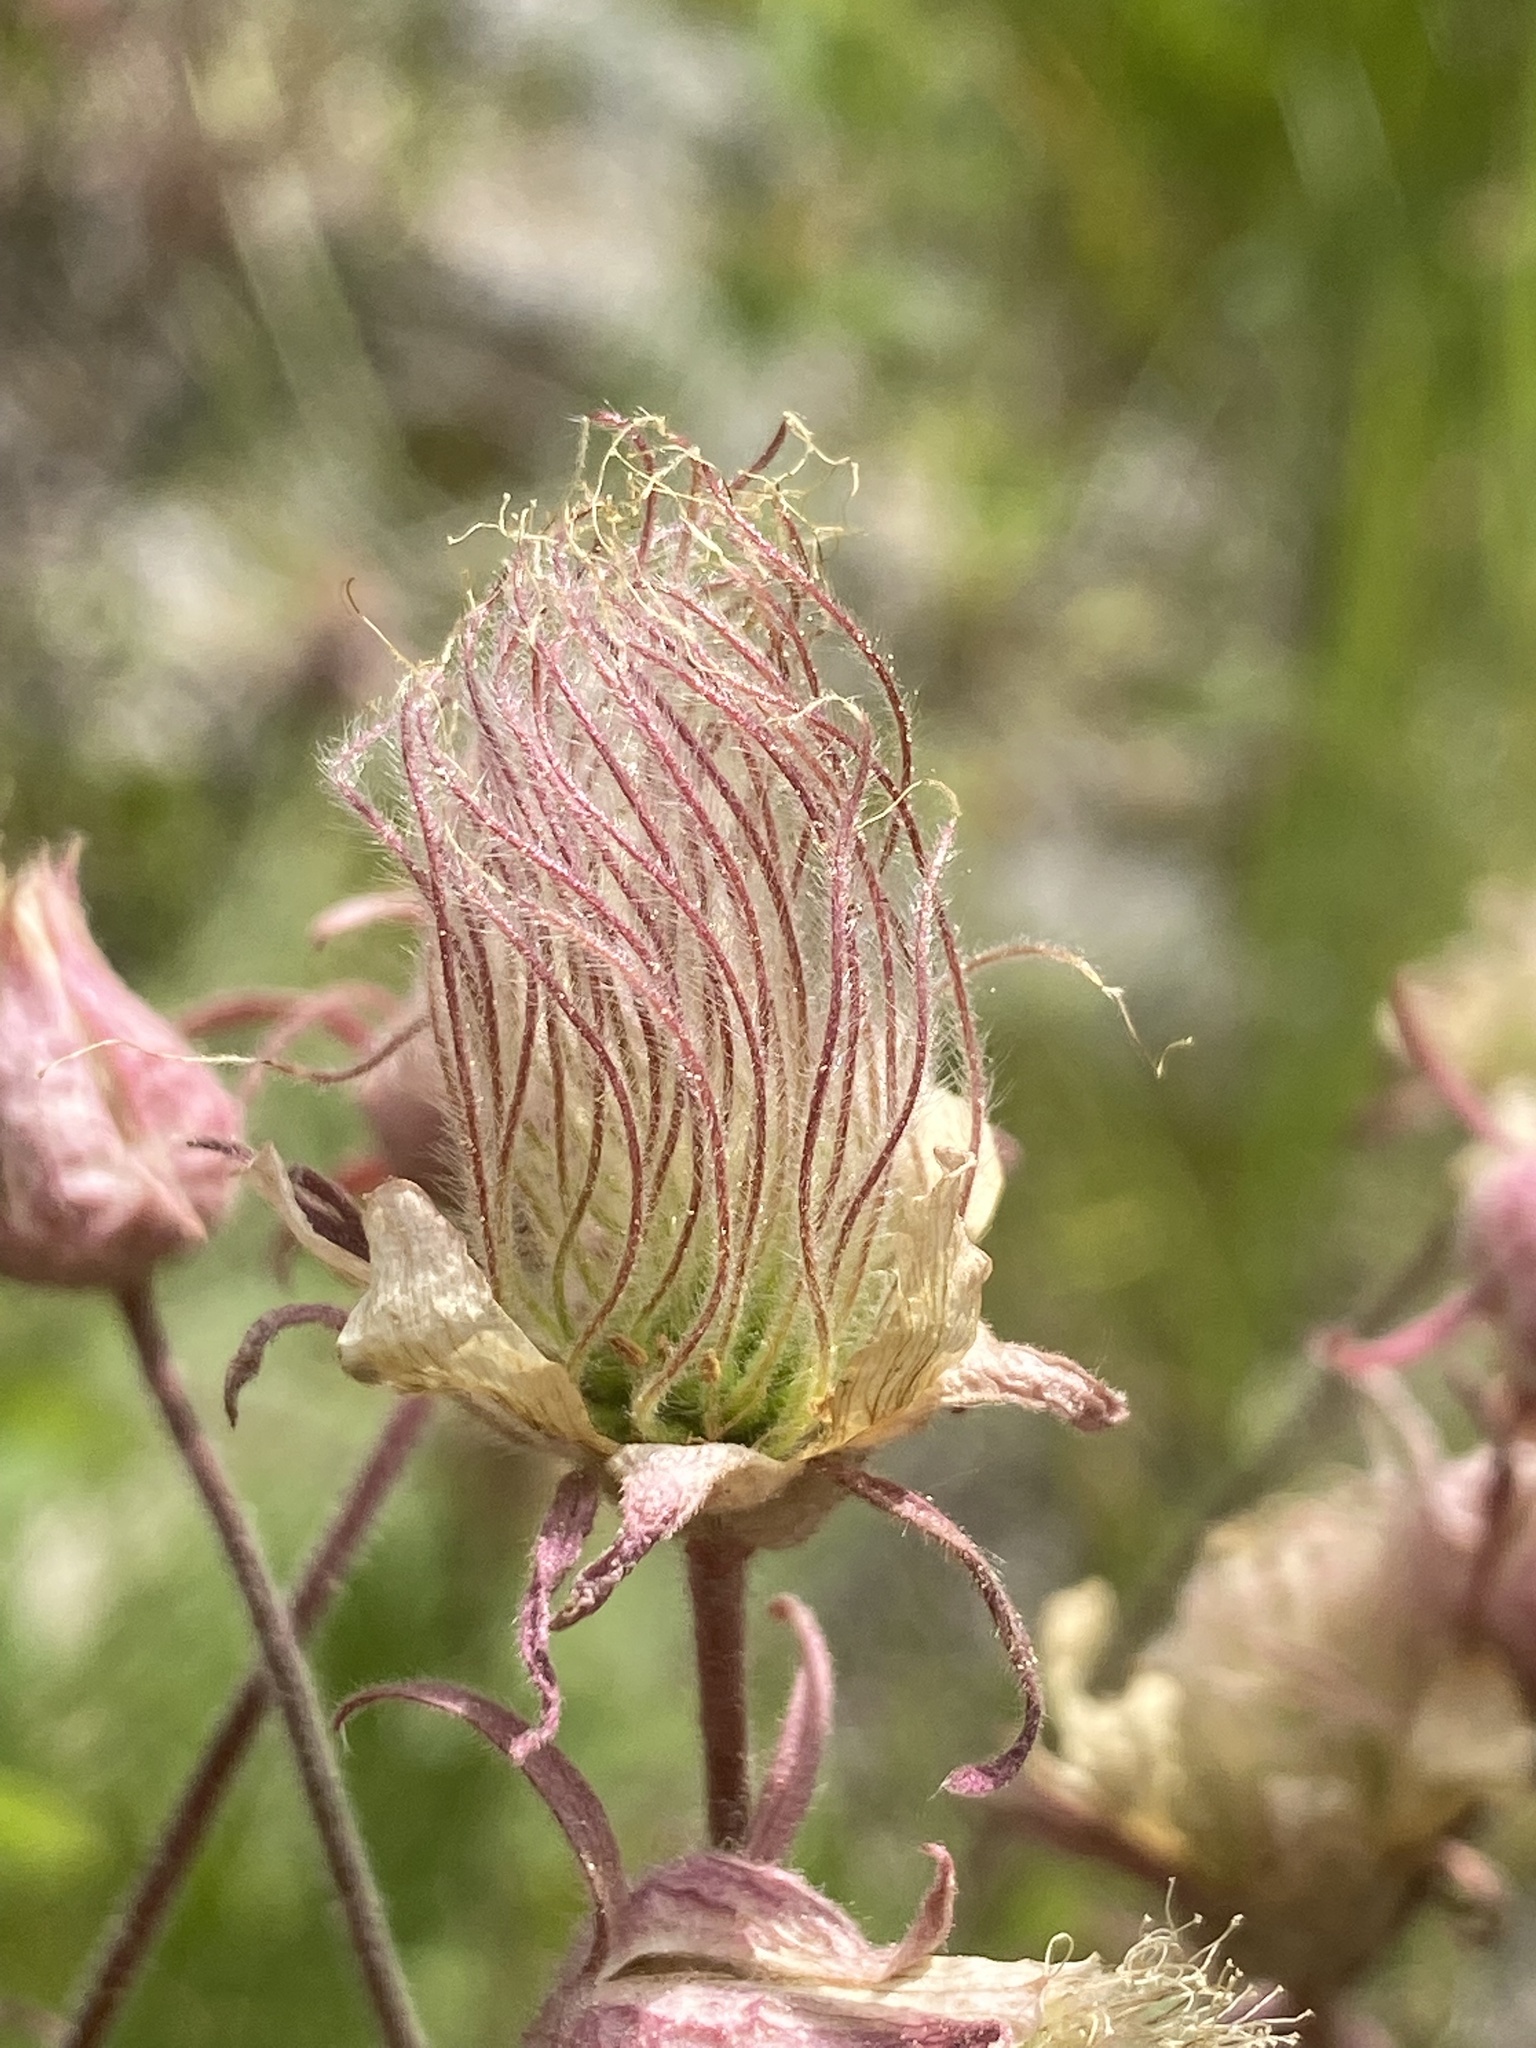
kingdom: Plantae
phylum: Tracheophyta
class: Magnoliopsida
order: Rosales
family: Rosaceae
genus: Geum
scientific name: Geum triflorum
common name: Old man's whiskers
